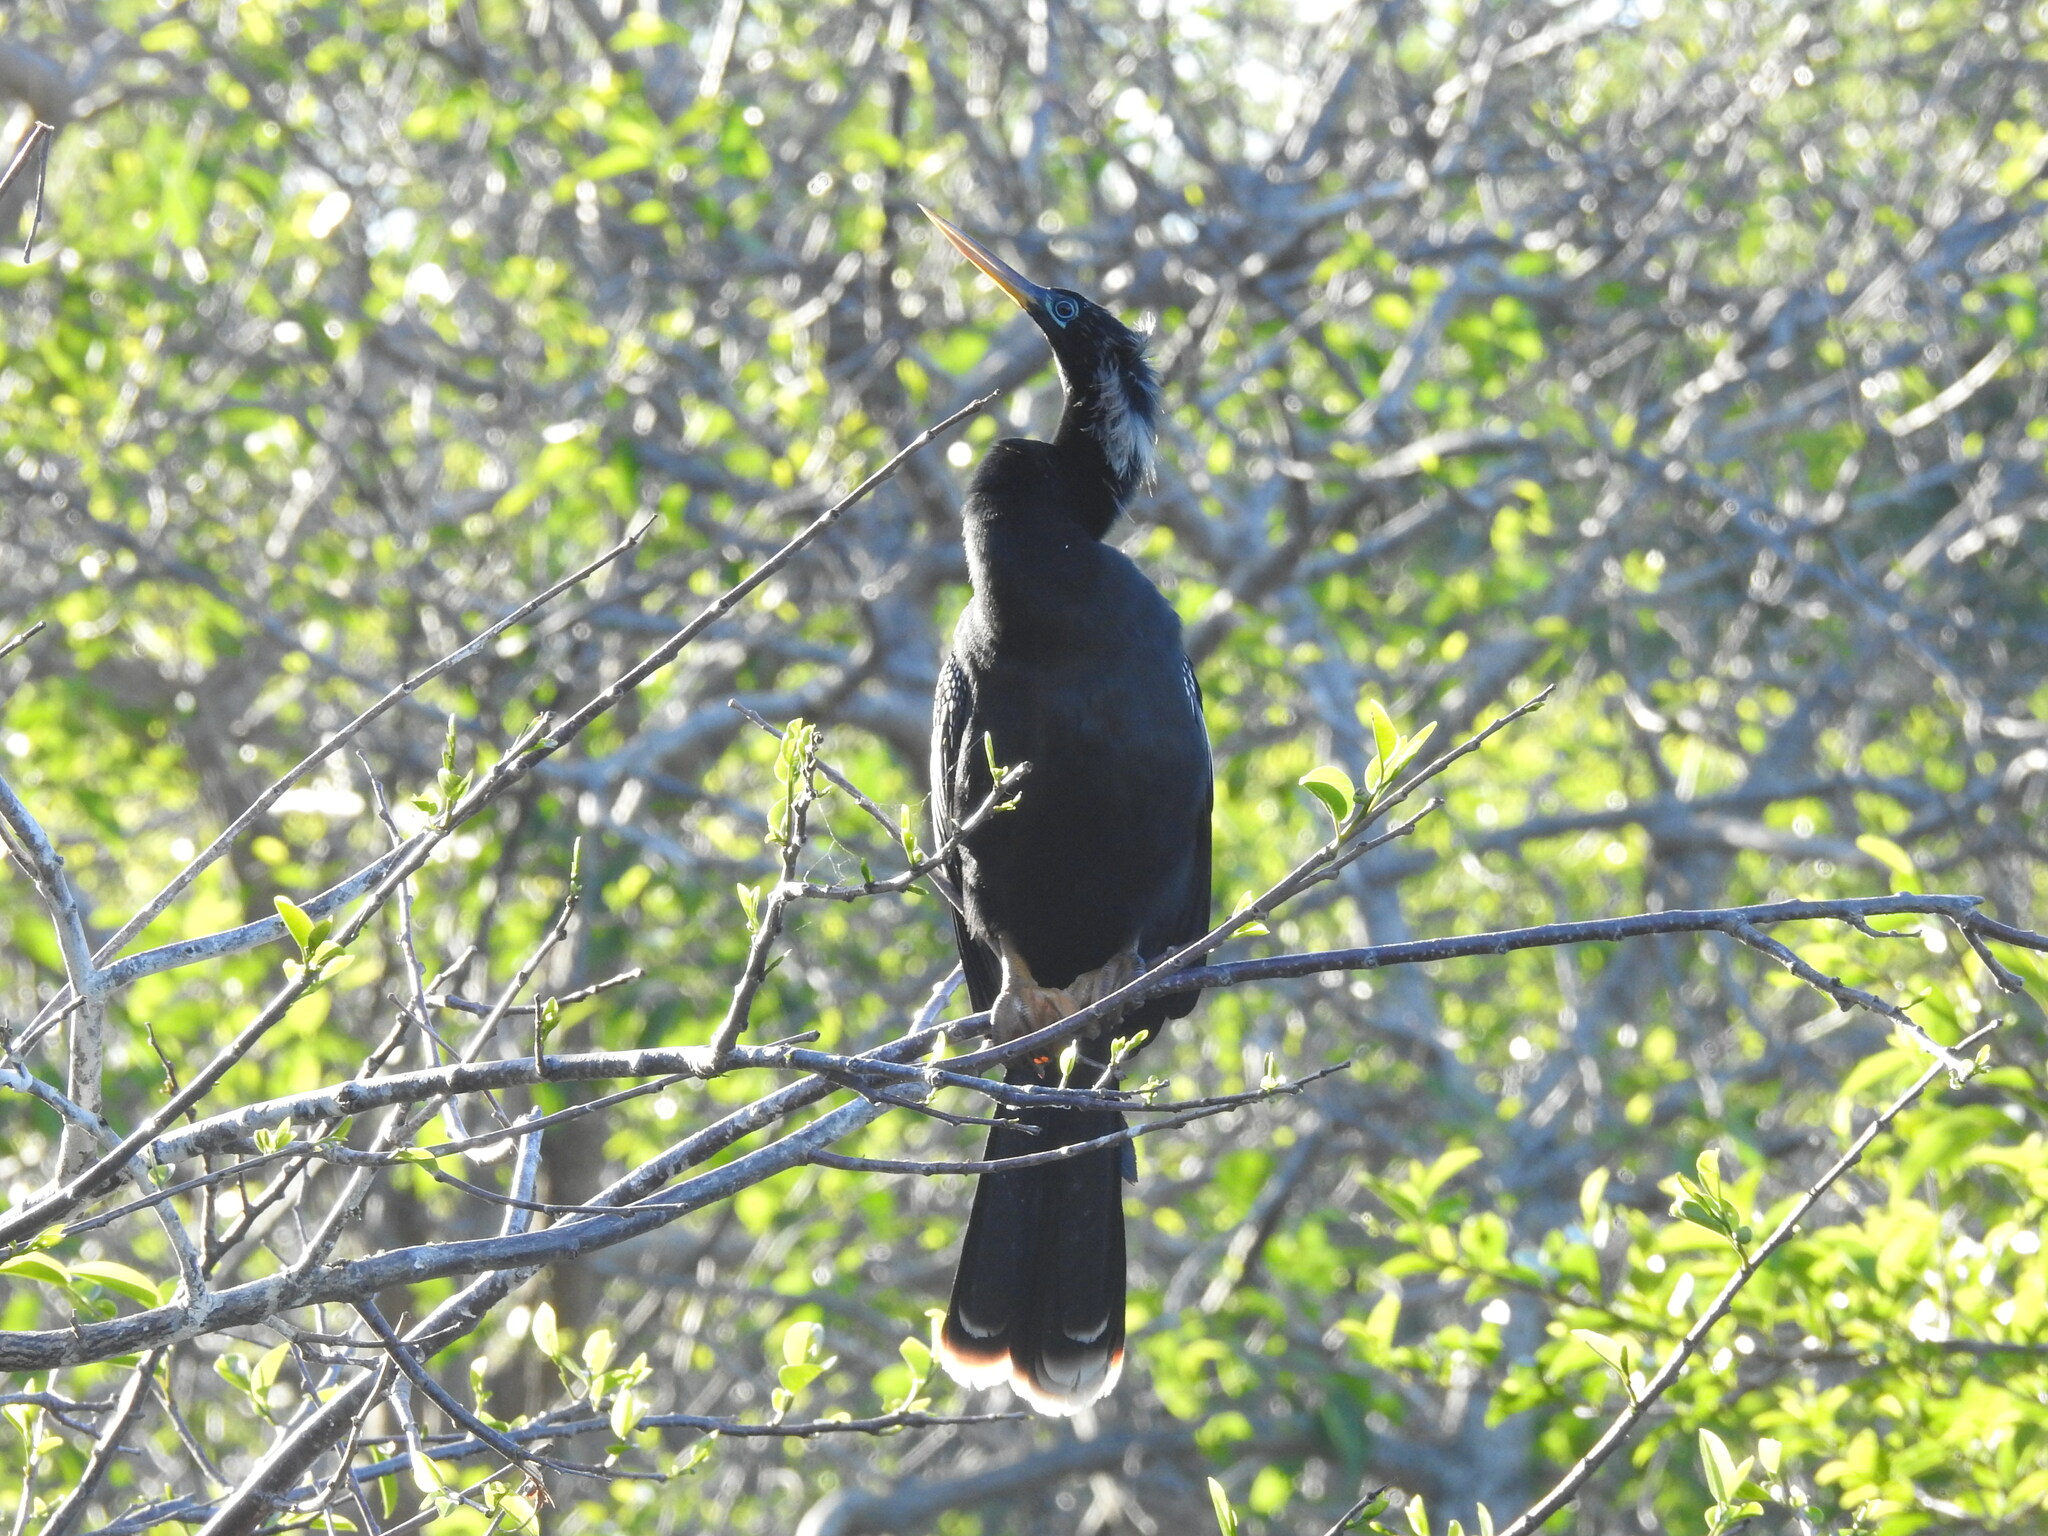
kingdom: Animalia
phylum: Chordata
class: Aves
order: Suliformes
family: Anhingidae
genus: Anhinga
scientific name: Anhinga anhinga
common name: Anhinga
